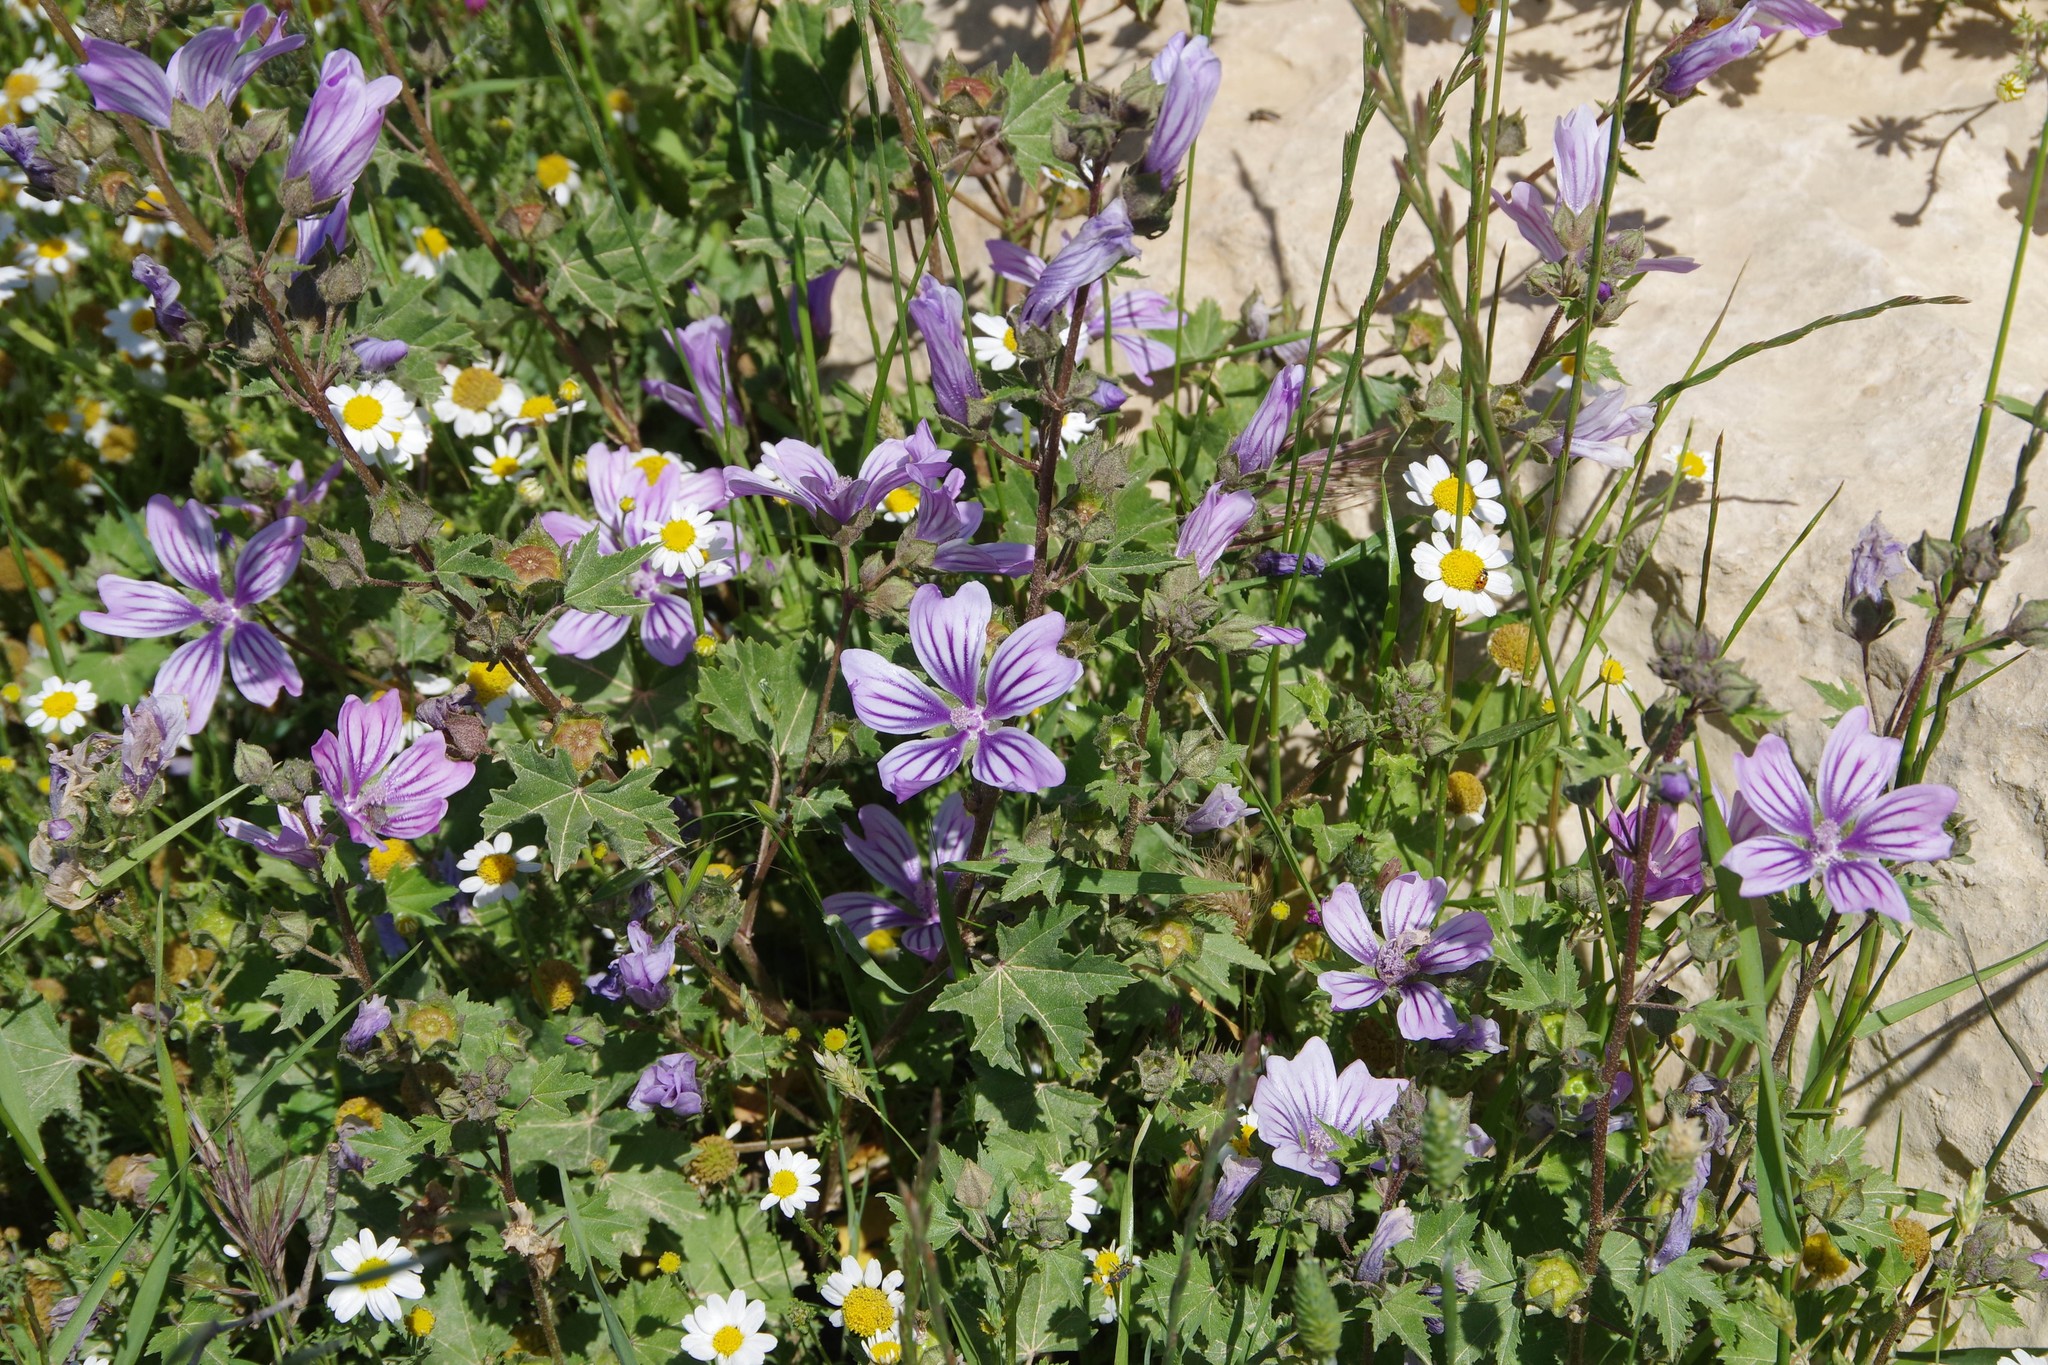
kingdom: Plantae
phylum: Tracheophyta
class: Magnoliopsida
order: Malvales
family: Malvaceae
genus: Malva
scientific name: Malva sylvestris
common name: Common mallow
